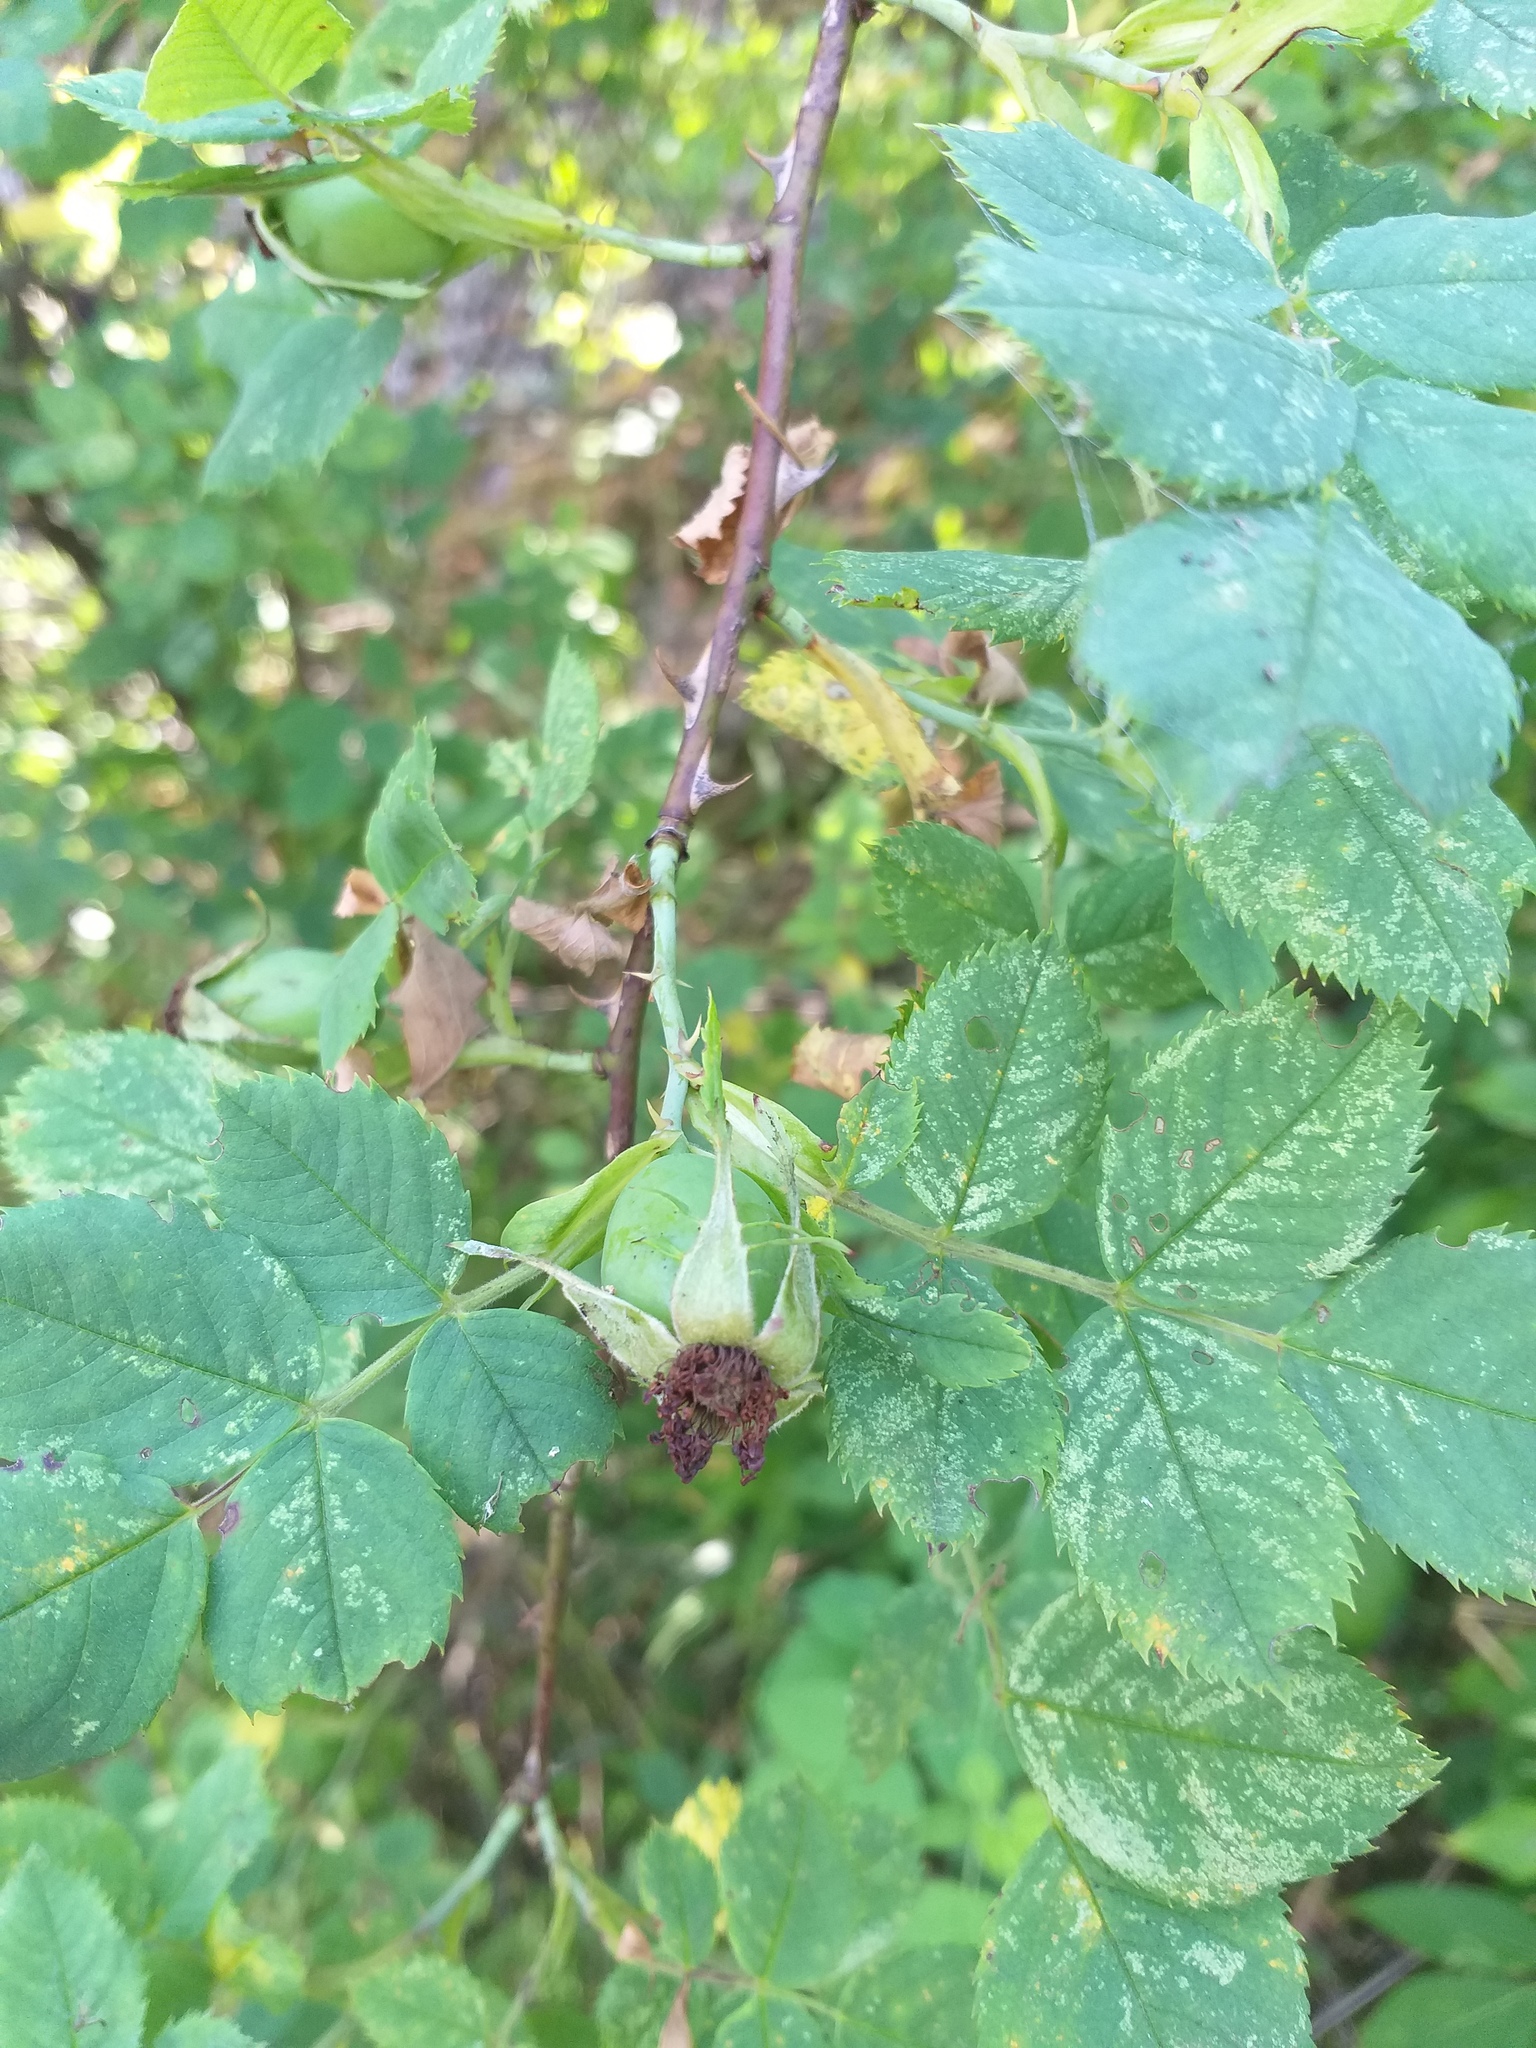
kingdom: Plantae
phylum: Tracheophyta
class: Magnoliopsida
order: Rosales
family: Rosaceae
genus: Rosa
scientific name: Rosa canina
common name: Dog rose
